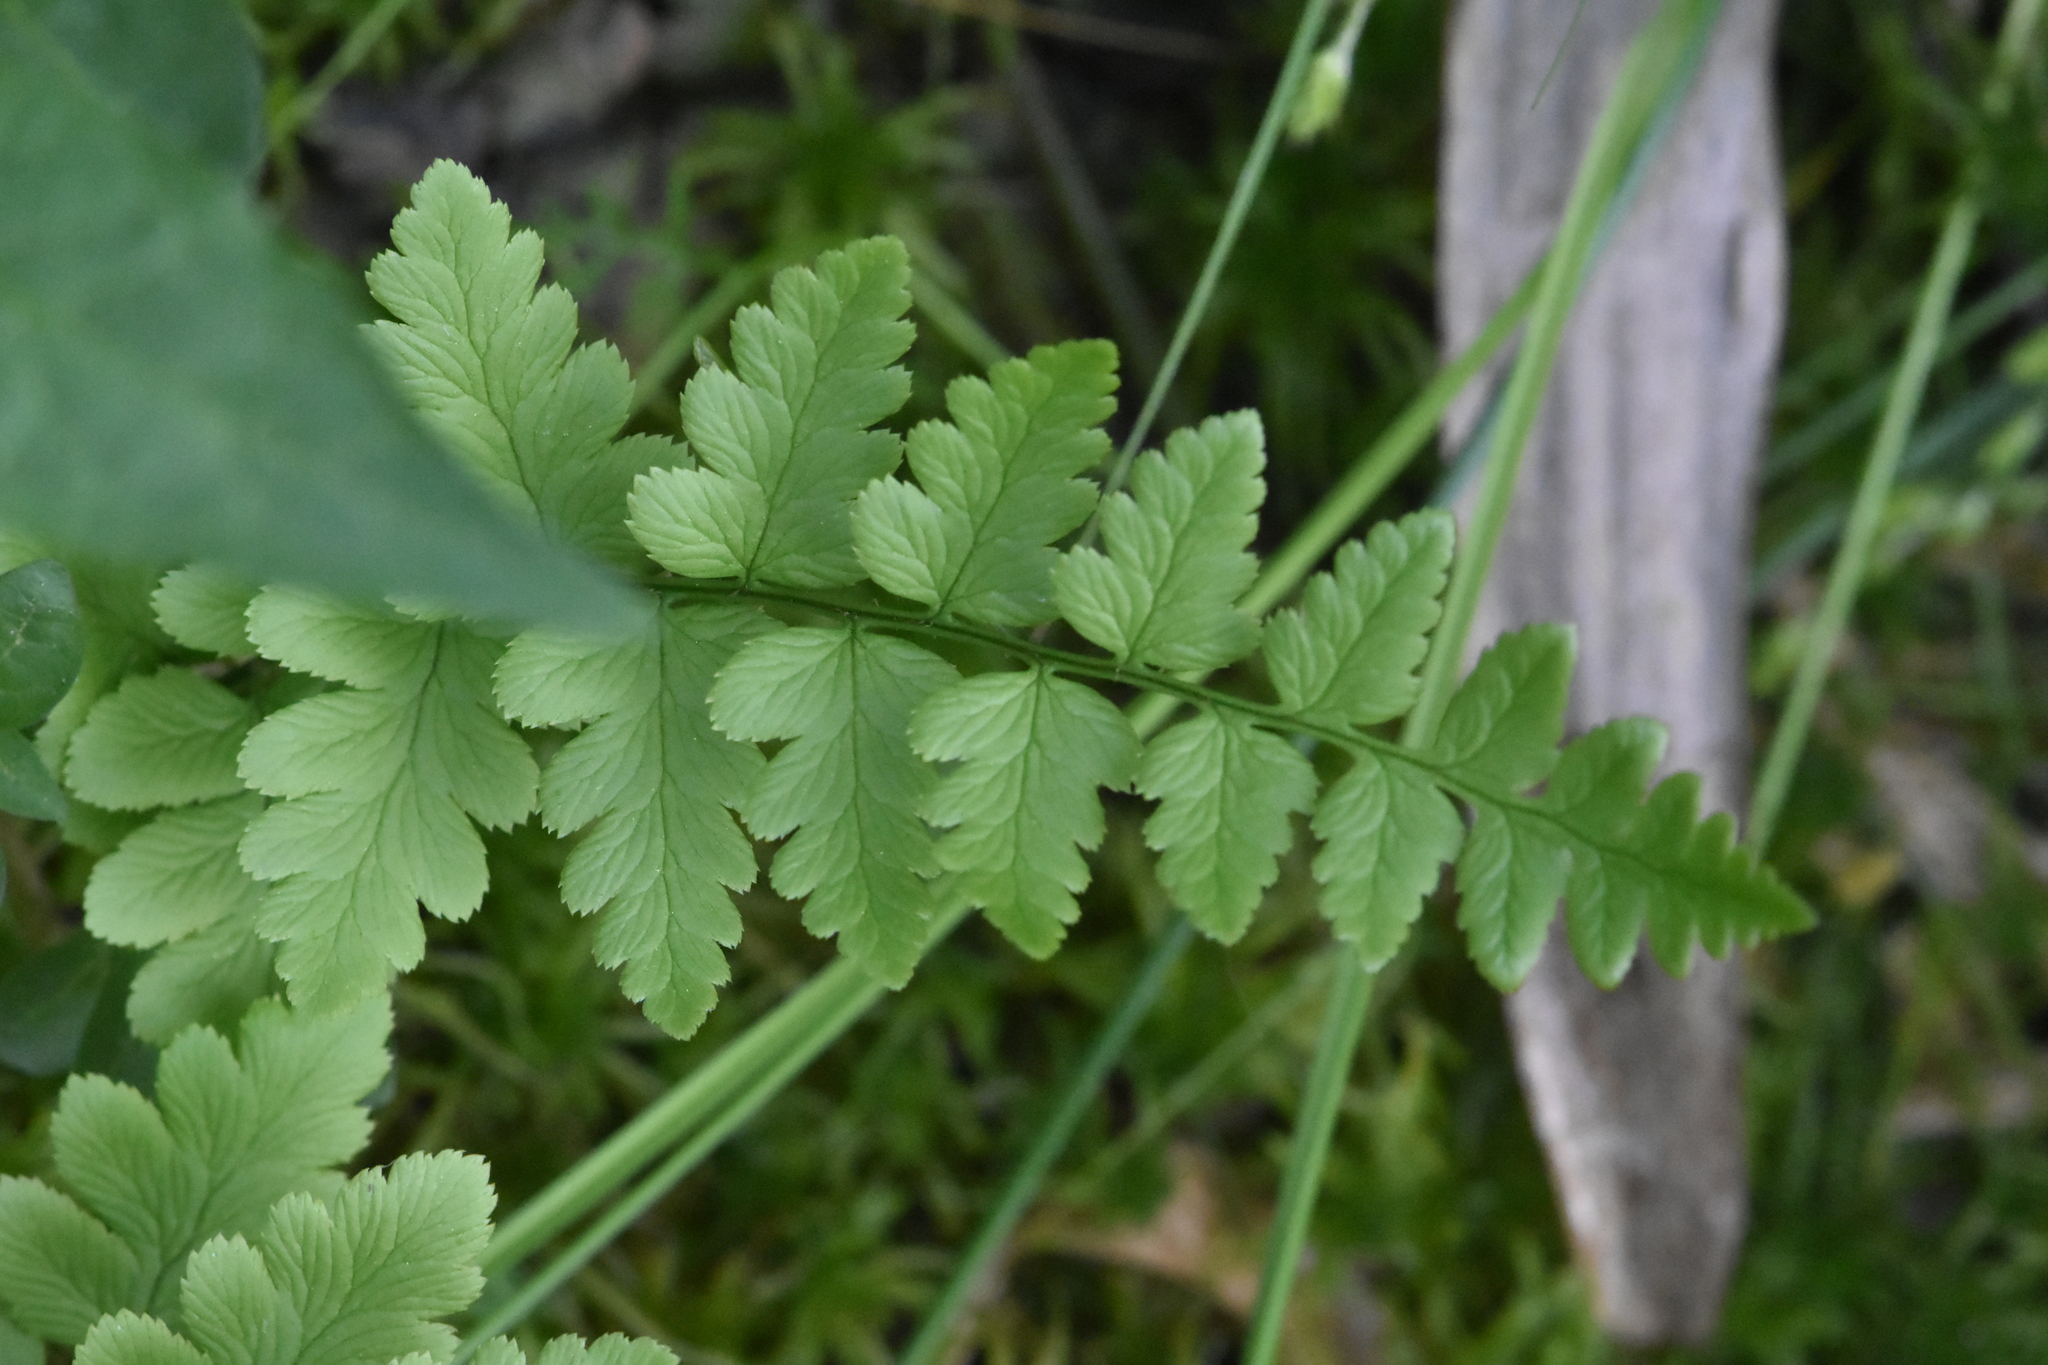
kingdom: Plantae
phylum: Tracheophyta
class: Polypodiopsida
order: Polypodiales
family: Dryopteridaceae
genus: Dryopteris
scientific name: Dryopteris cristata
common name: Crested wood fern
